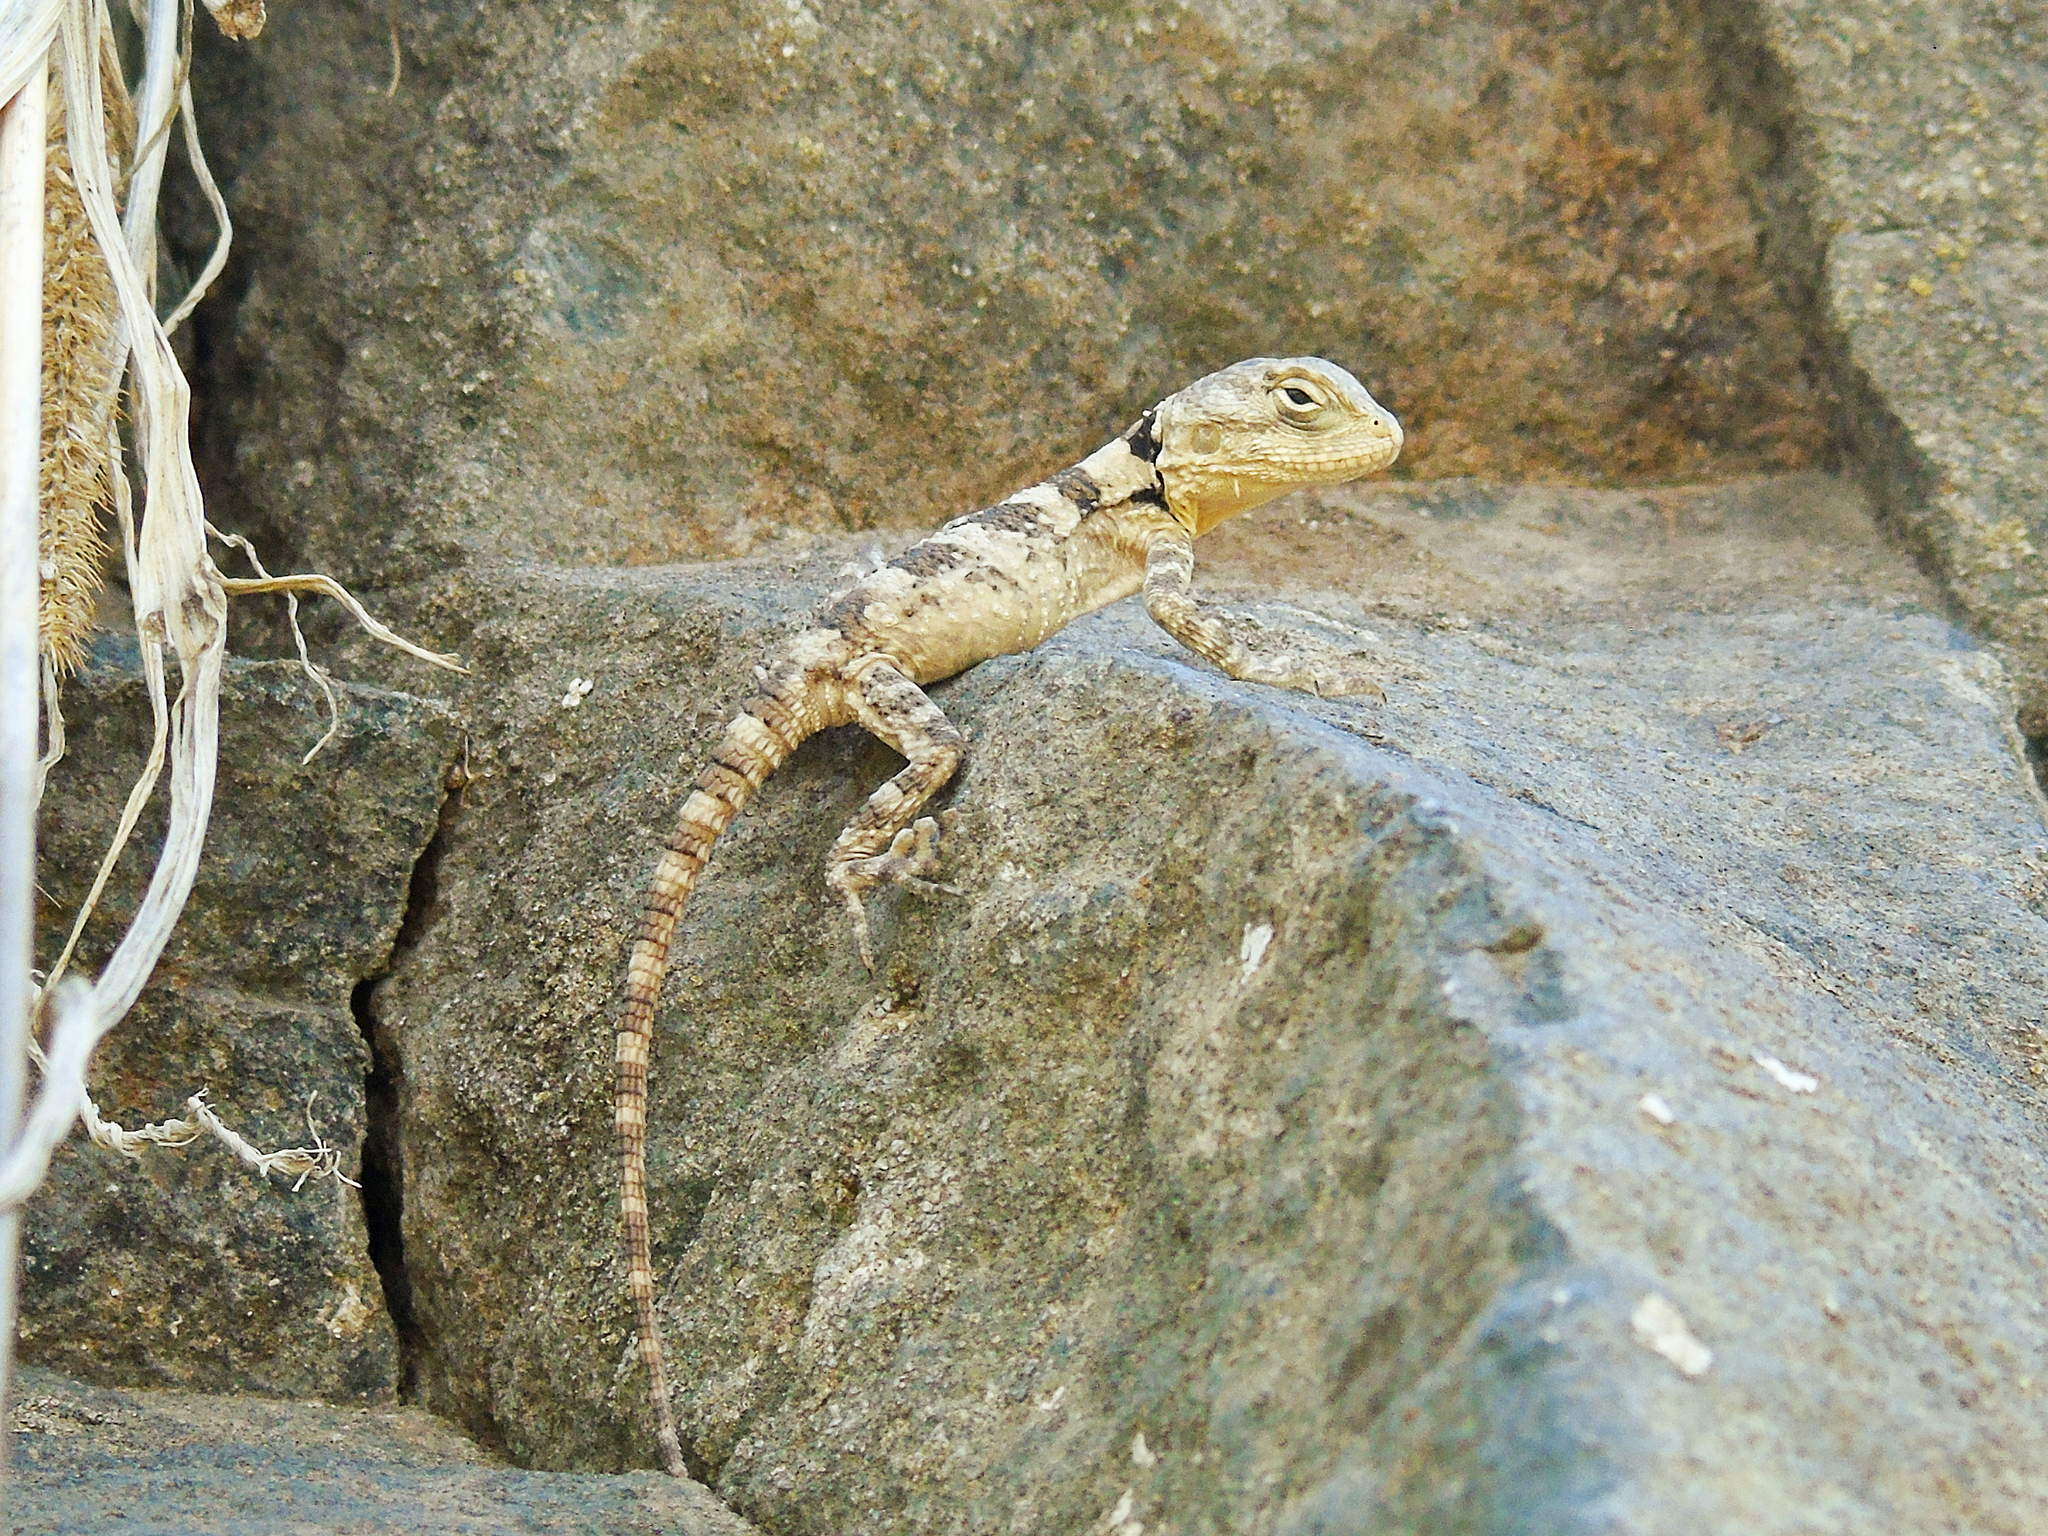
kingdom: Animalia
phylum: Chordata
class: Squamata
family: Agamidae
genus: Stellagama
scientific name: Stellagama stellio
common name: Starred agama
